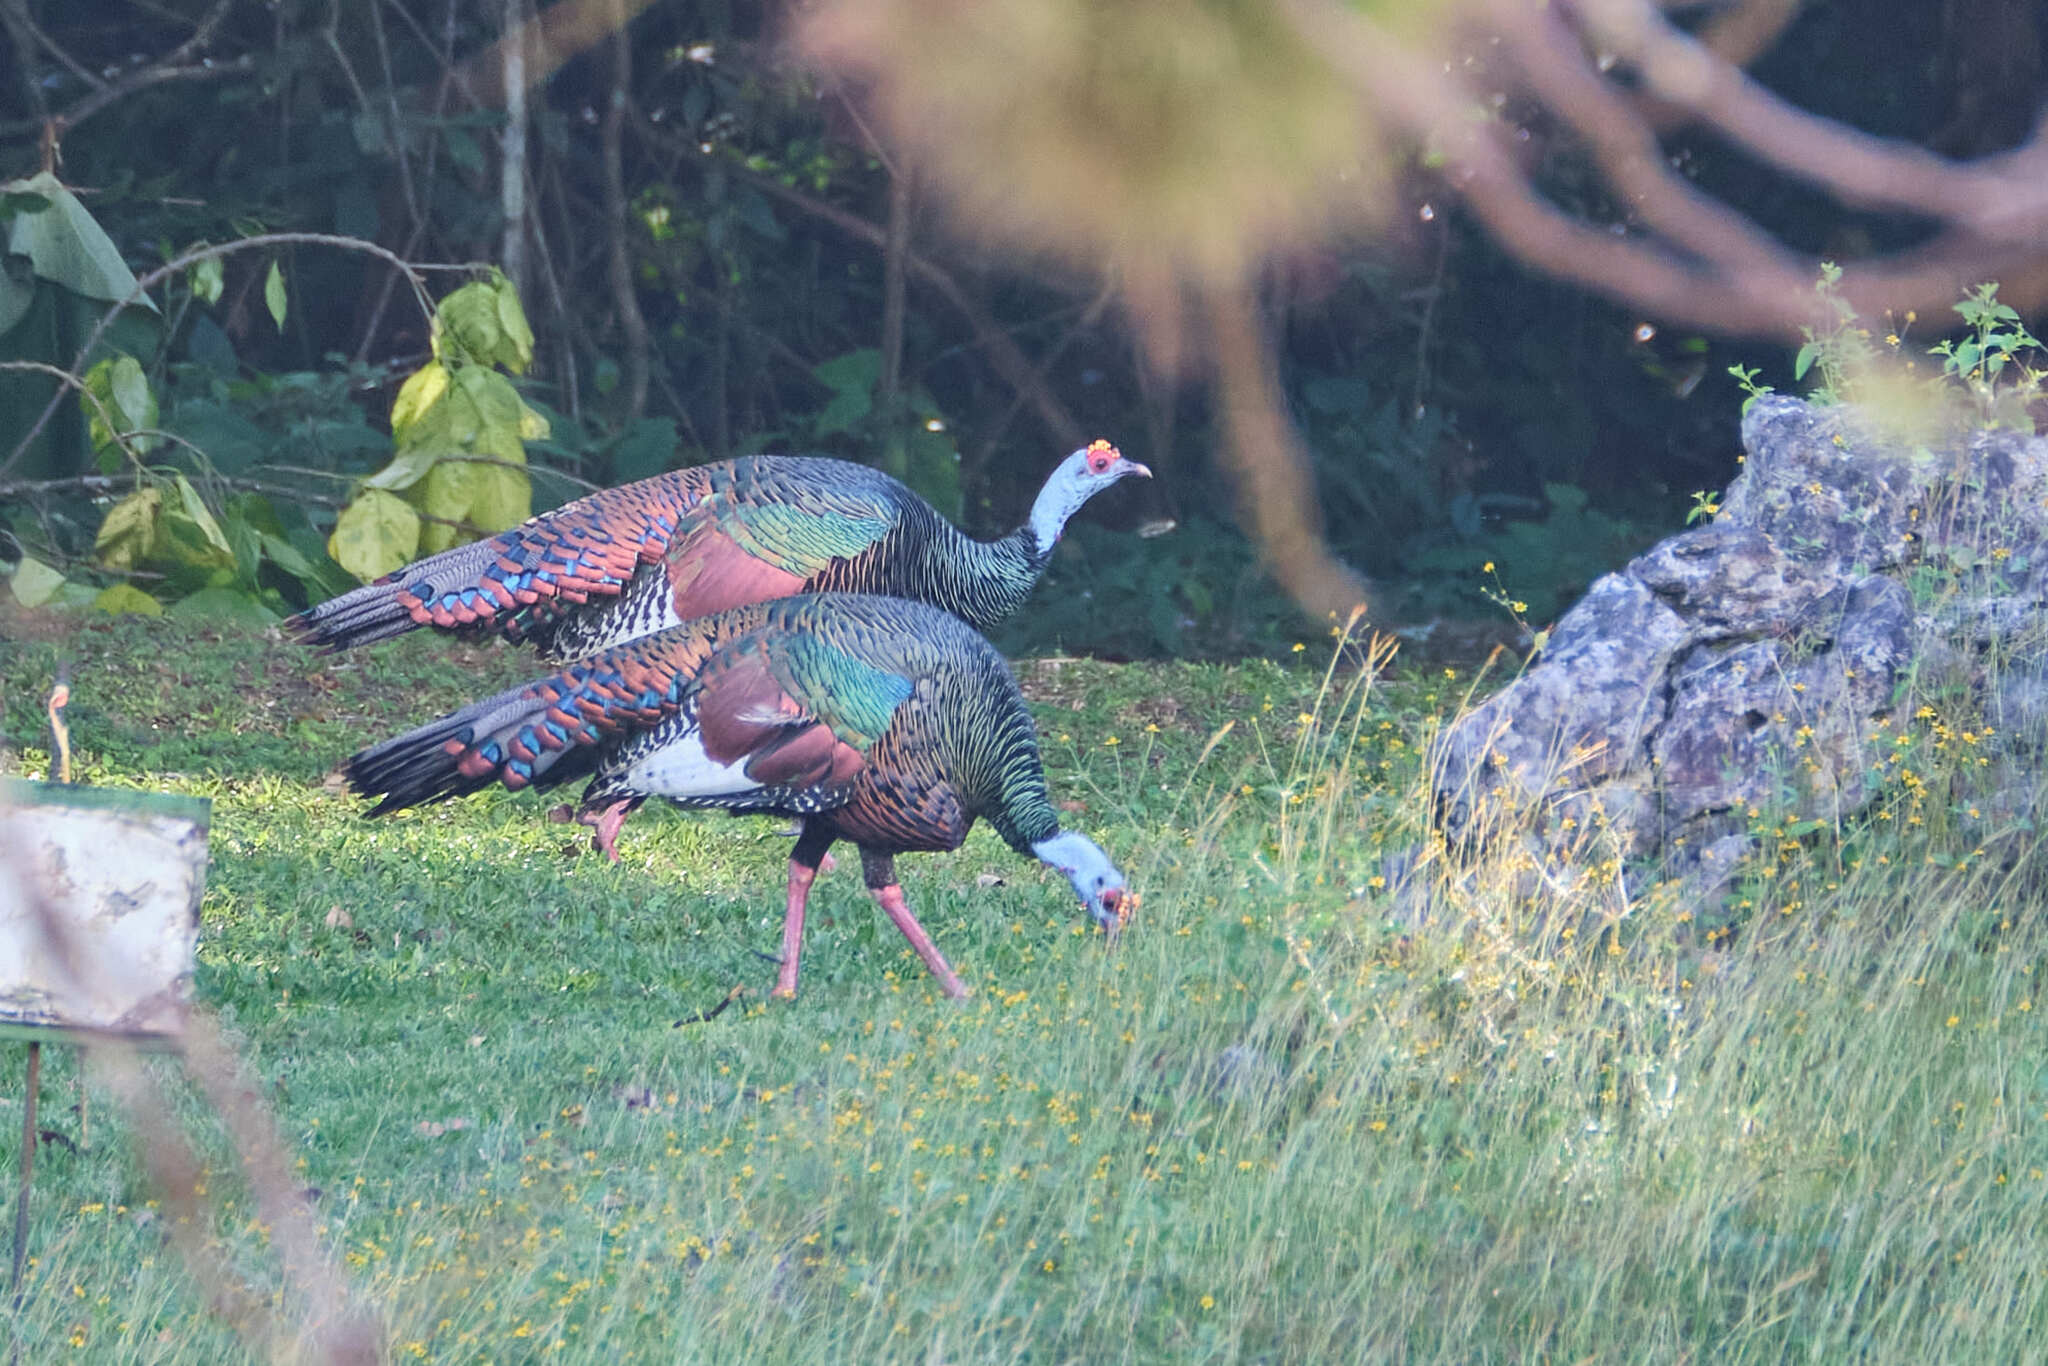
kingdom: Animalia
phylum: Chordata
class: Aves
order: Galliformes
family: Phasianidae
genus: Meleagris
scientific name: Meleagris ocellata
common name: Ocellated turkey
